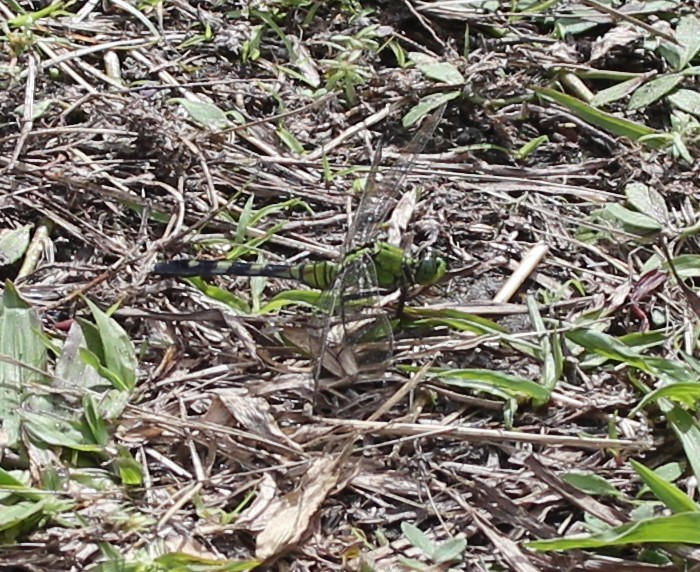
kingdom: Animalia
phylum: Arthropoda
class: Insecta
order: Odonata
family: Libellulidae
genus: Erythemis
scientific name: Erythemis simplicicollis
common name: Eastern pondhawk
